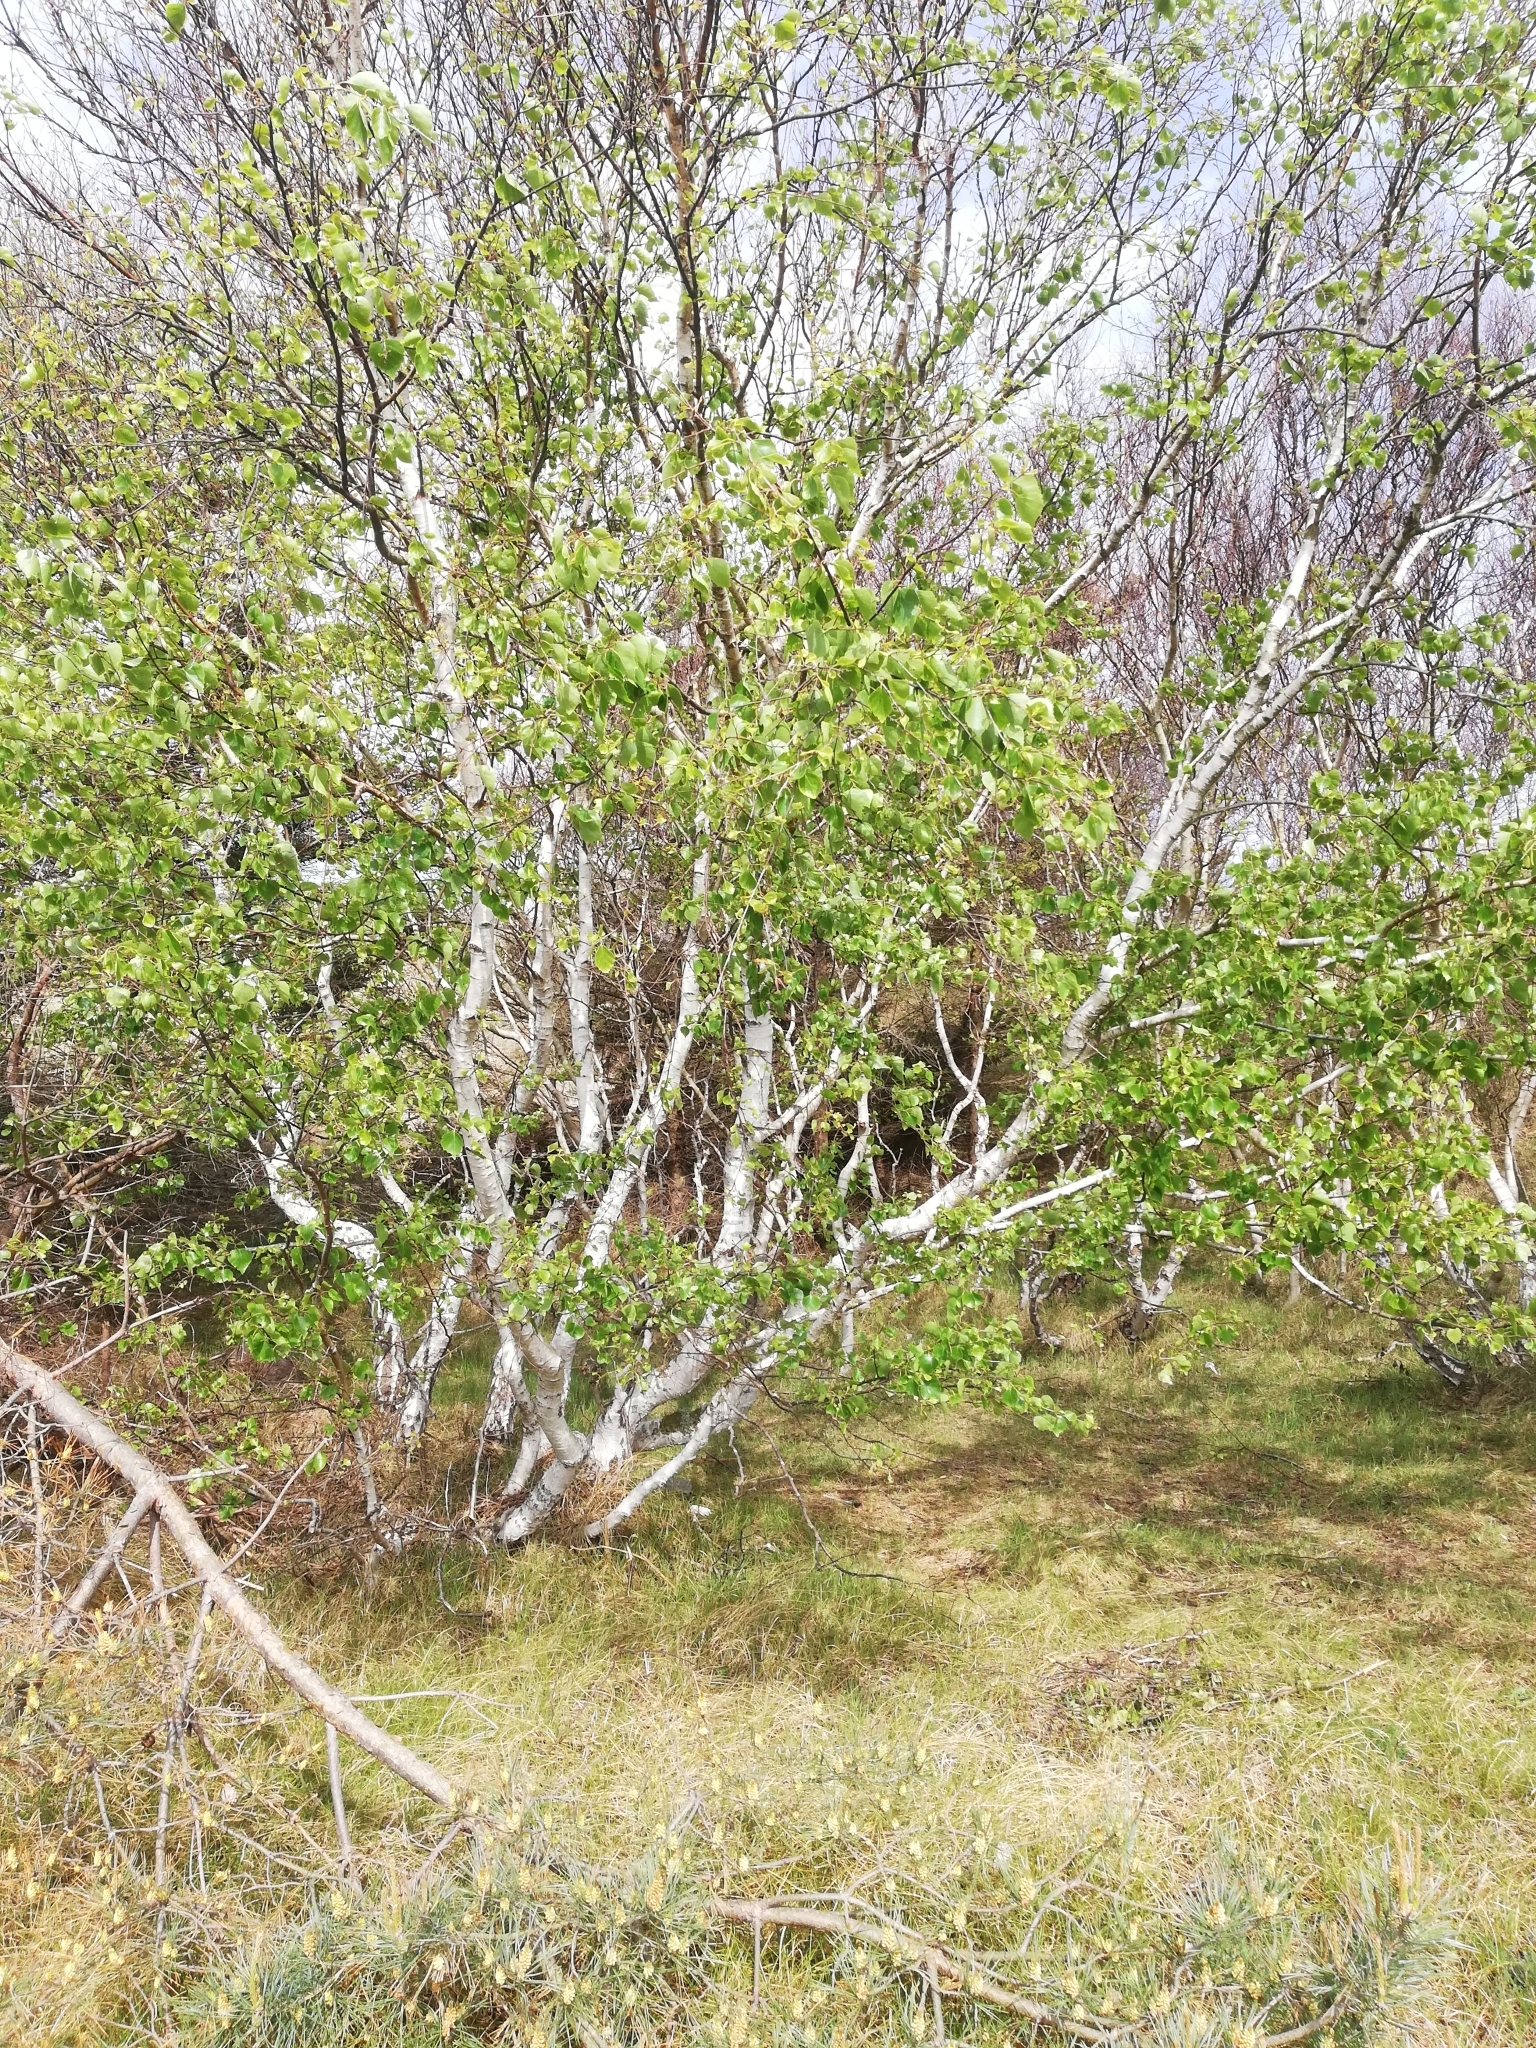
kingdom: Plantae
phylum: Tracheophyta
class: Magnoliopsida
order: Fagales
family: Betulaceae
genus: Betula
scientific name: Betula pendula
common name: Silver birch
